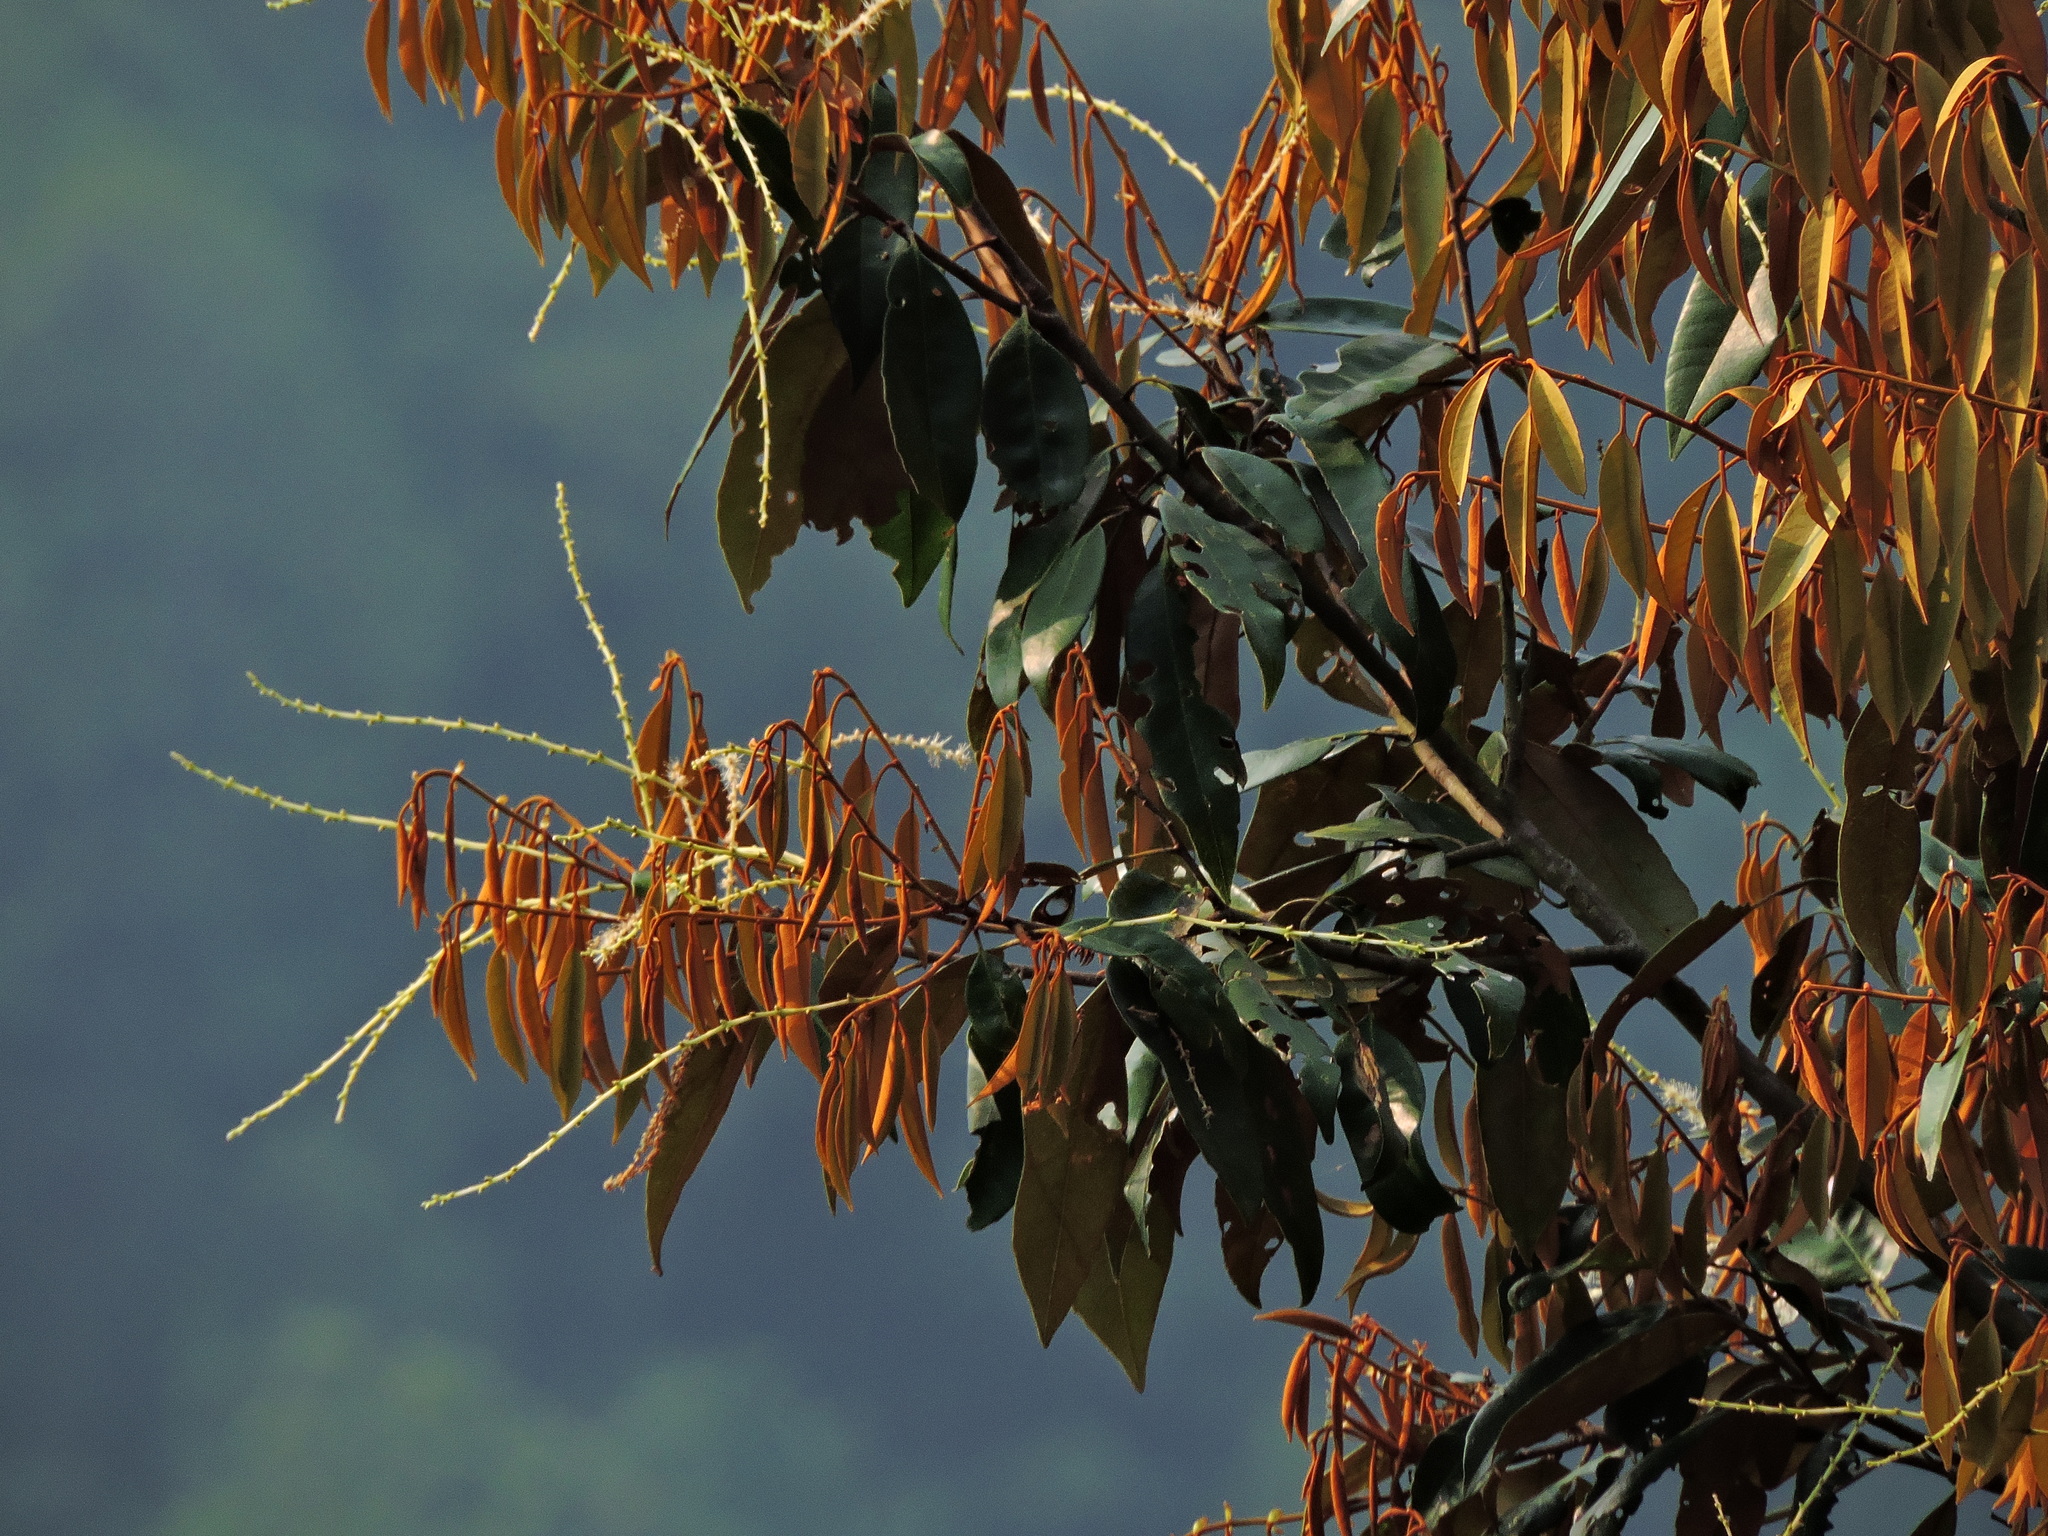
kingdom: Plantae
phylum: Tracheophyta
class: Magnoliopsida
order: Fagales
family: Fagaceae
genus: Castanopsis
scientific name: Castanopsis fargesii
